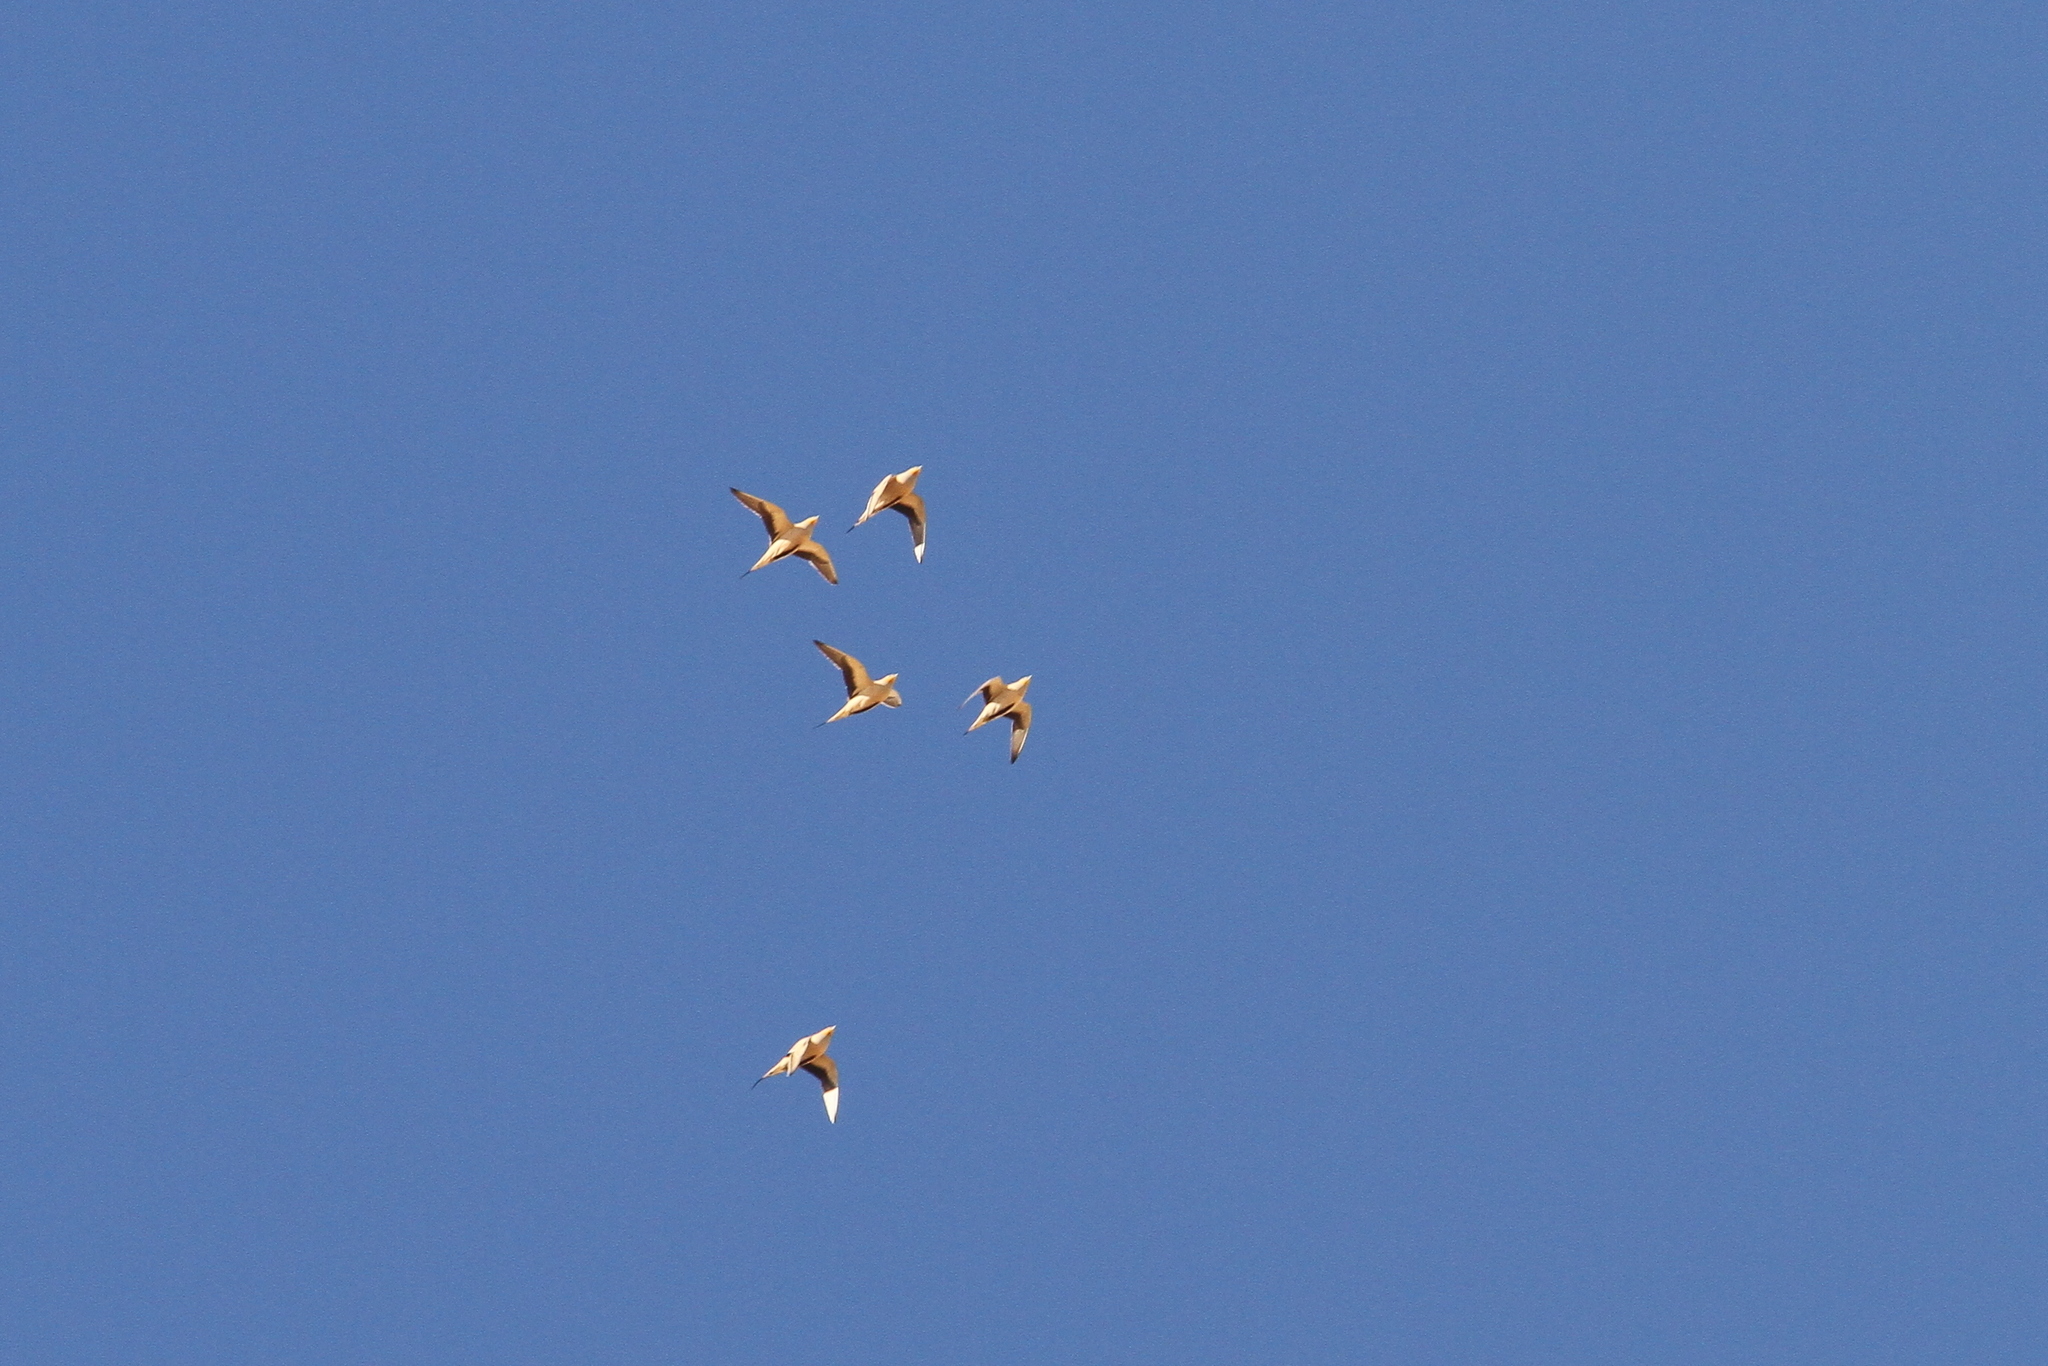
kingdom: Animalia
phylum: Chordata
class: Aves
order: Pteroclidiformes
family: Pteroclididae
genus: Pterocles
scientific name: Pterocles senegallus
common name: Spotted sandgrouse
